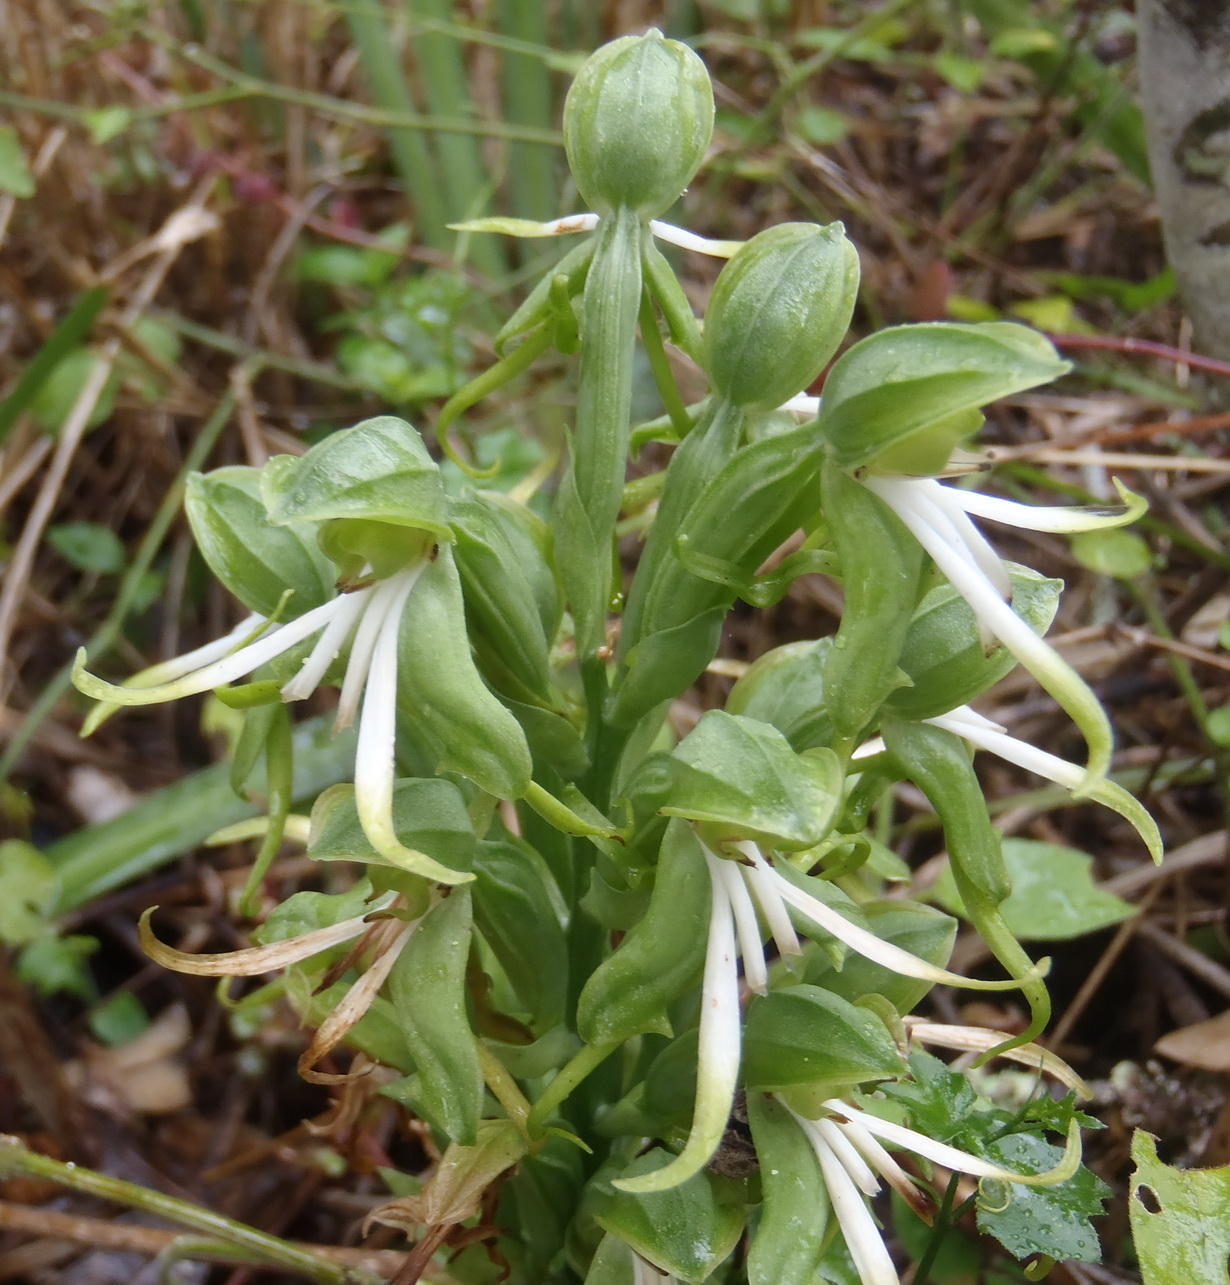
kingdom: Plantae
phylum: Tracheophyta
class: Liliopsida
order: Asparagales
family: Orchidaceae
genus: Bonatea
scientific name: Bonatea speciosa
